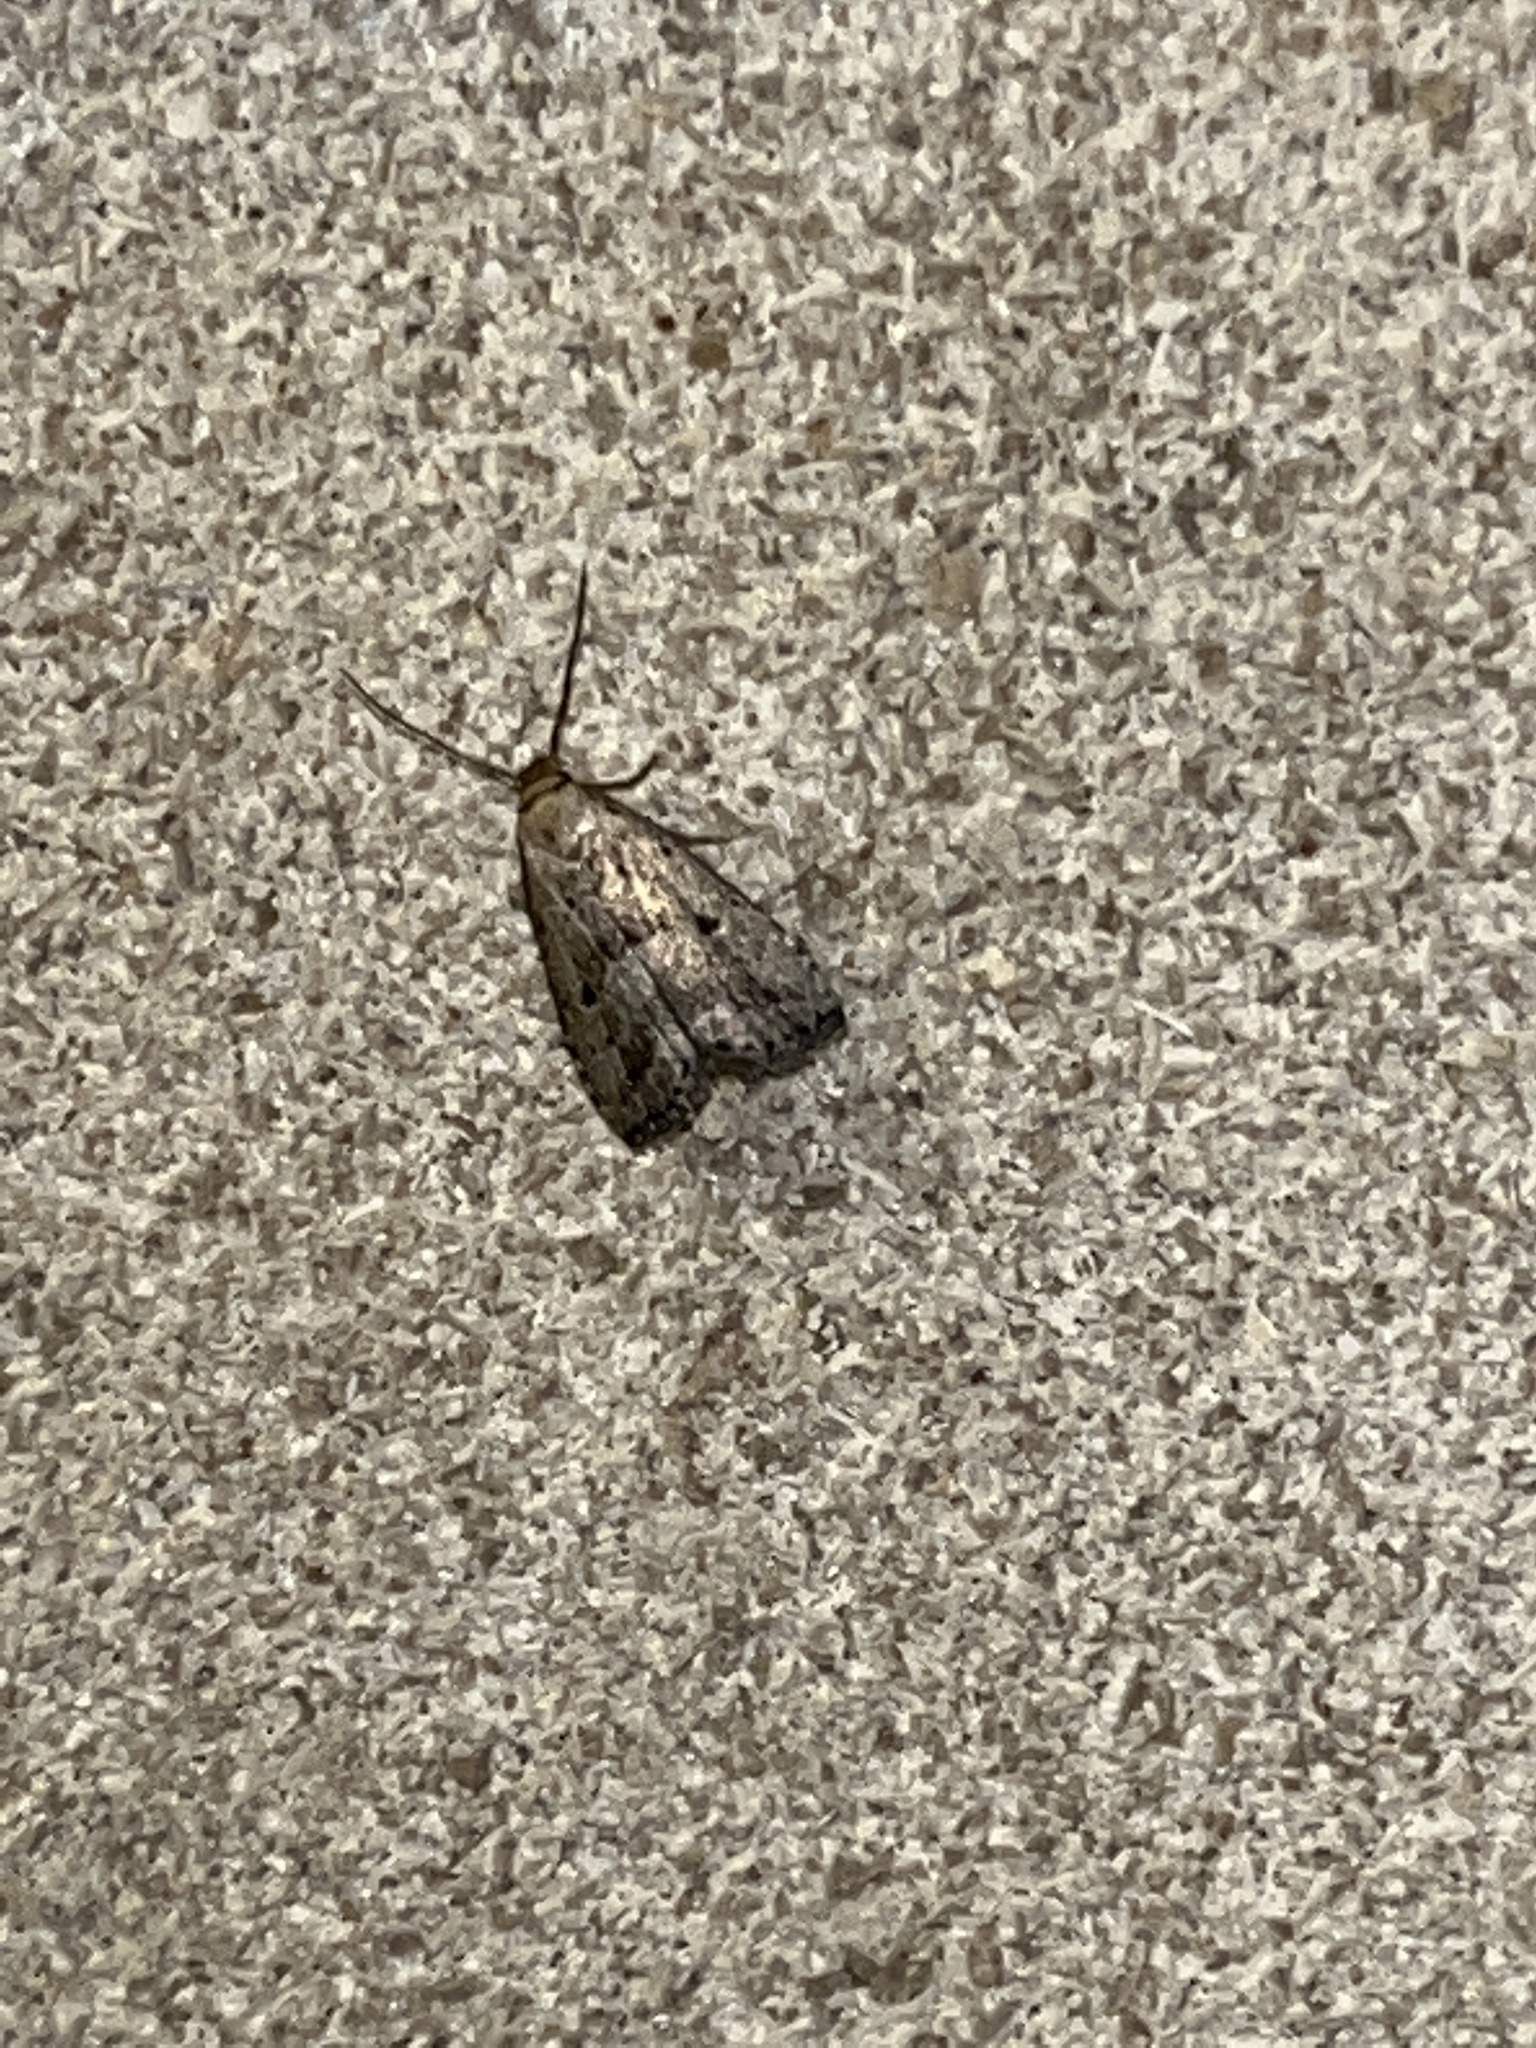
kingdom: Animalia
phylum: Arthropoda
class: Insecta
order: Lepidoptera
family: Erebidae
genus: Hypenodes
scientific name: Hypenodes fractilinea
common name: Broken-line hypenodes moth
